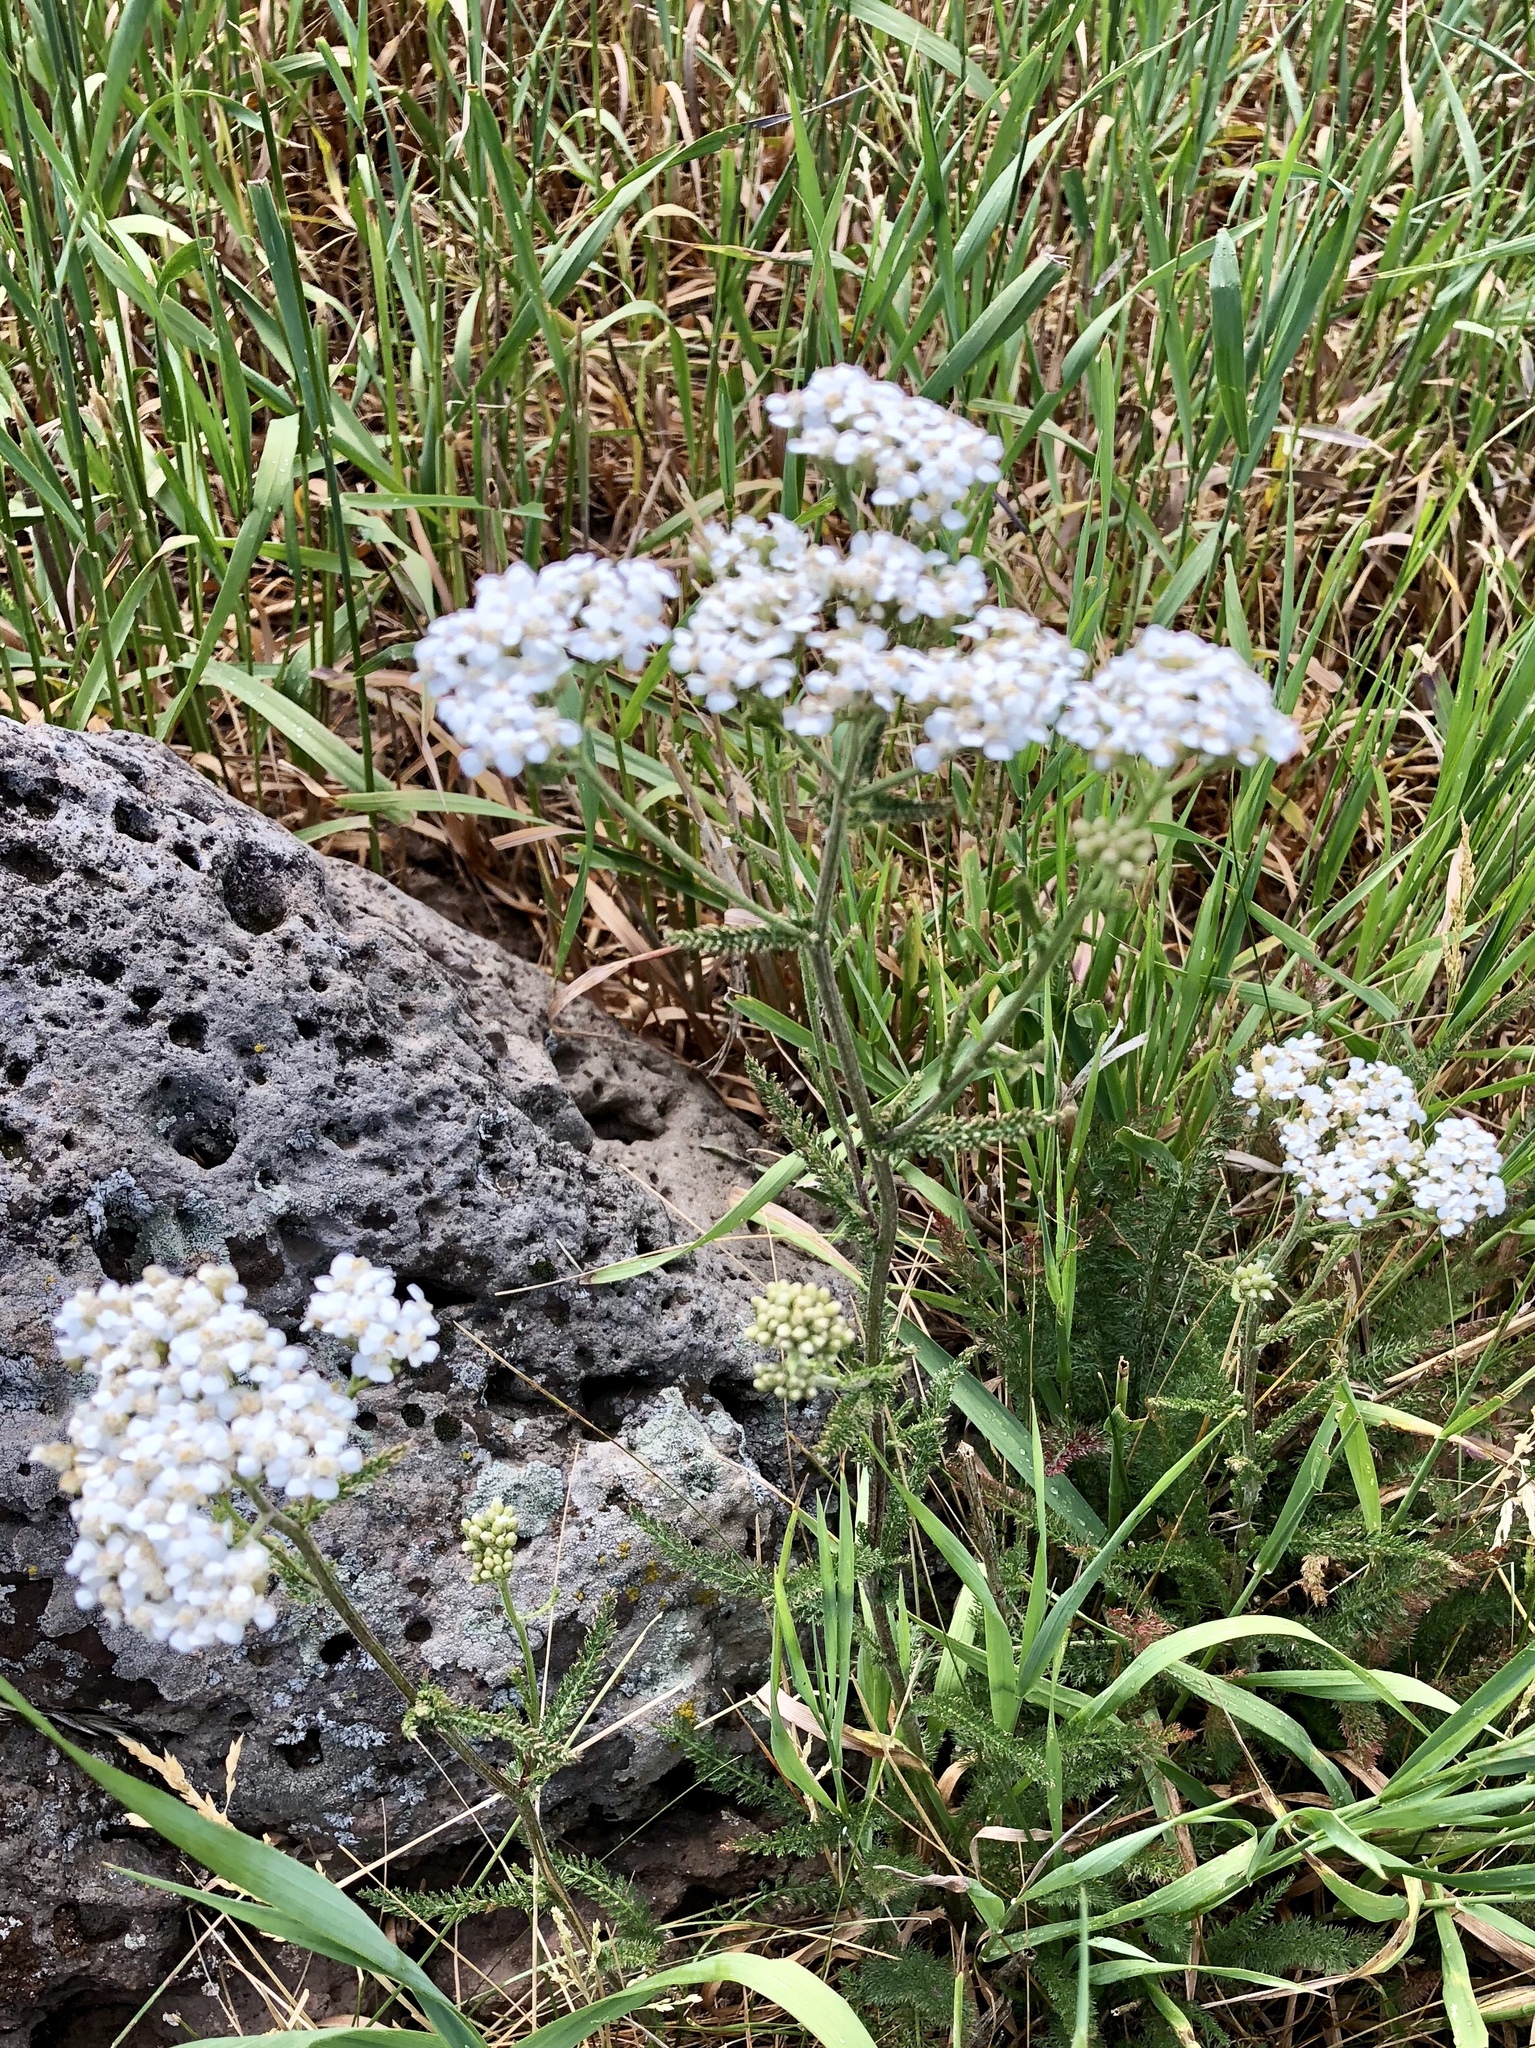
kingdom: Plantae
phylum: Tracheophyta
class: Magnoliopsida
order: Asterales
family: Asteraceae
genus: Achillea
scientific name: Achillea millefolium
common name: Yarrow
